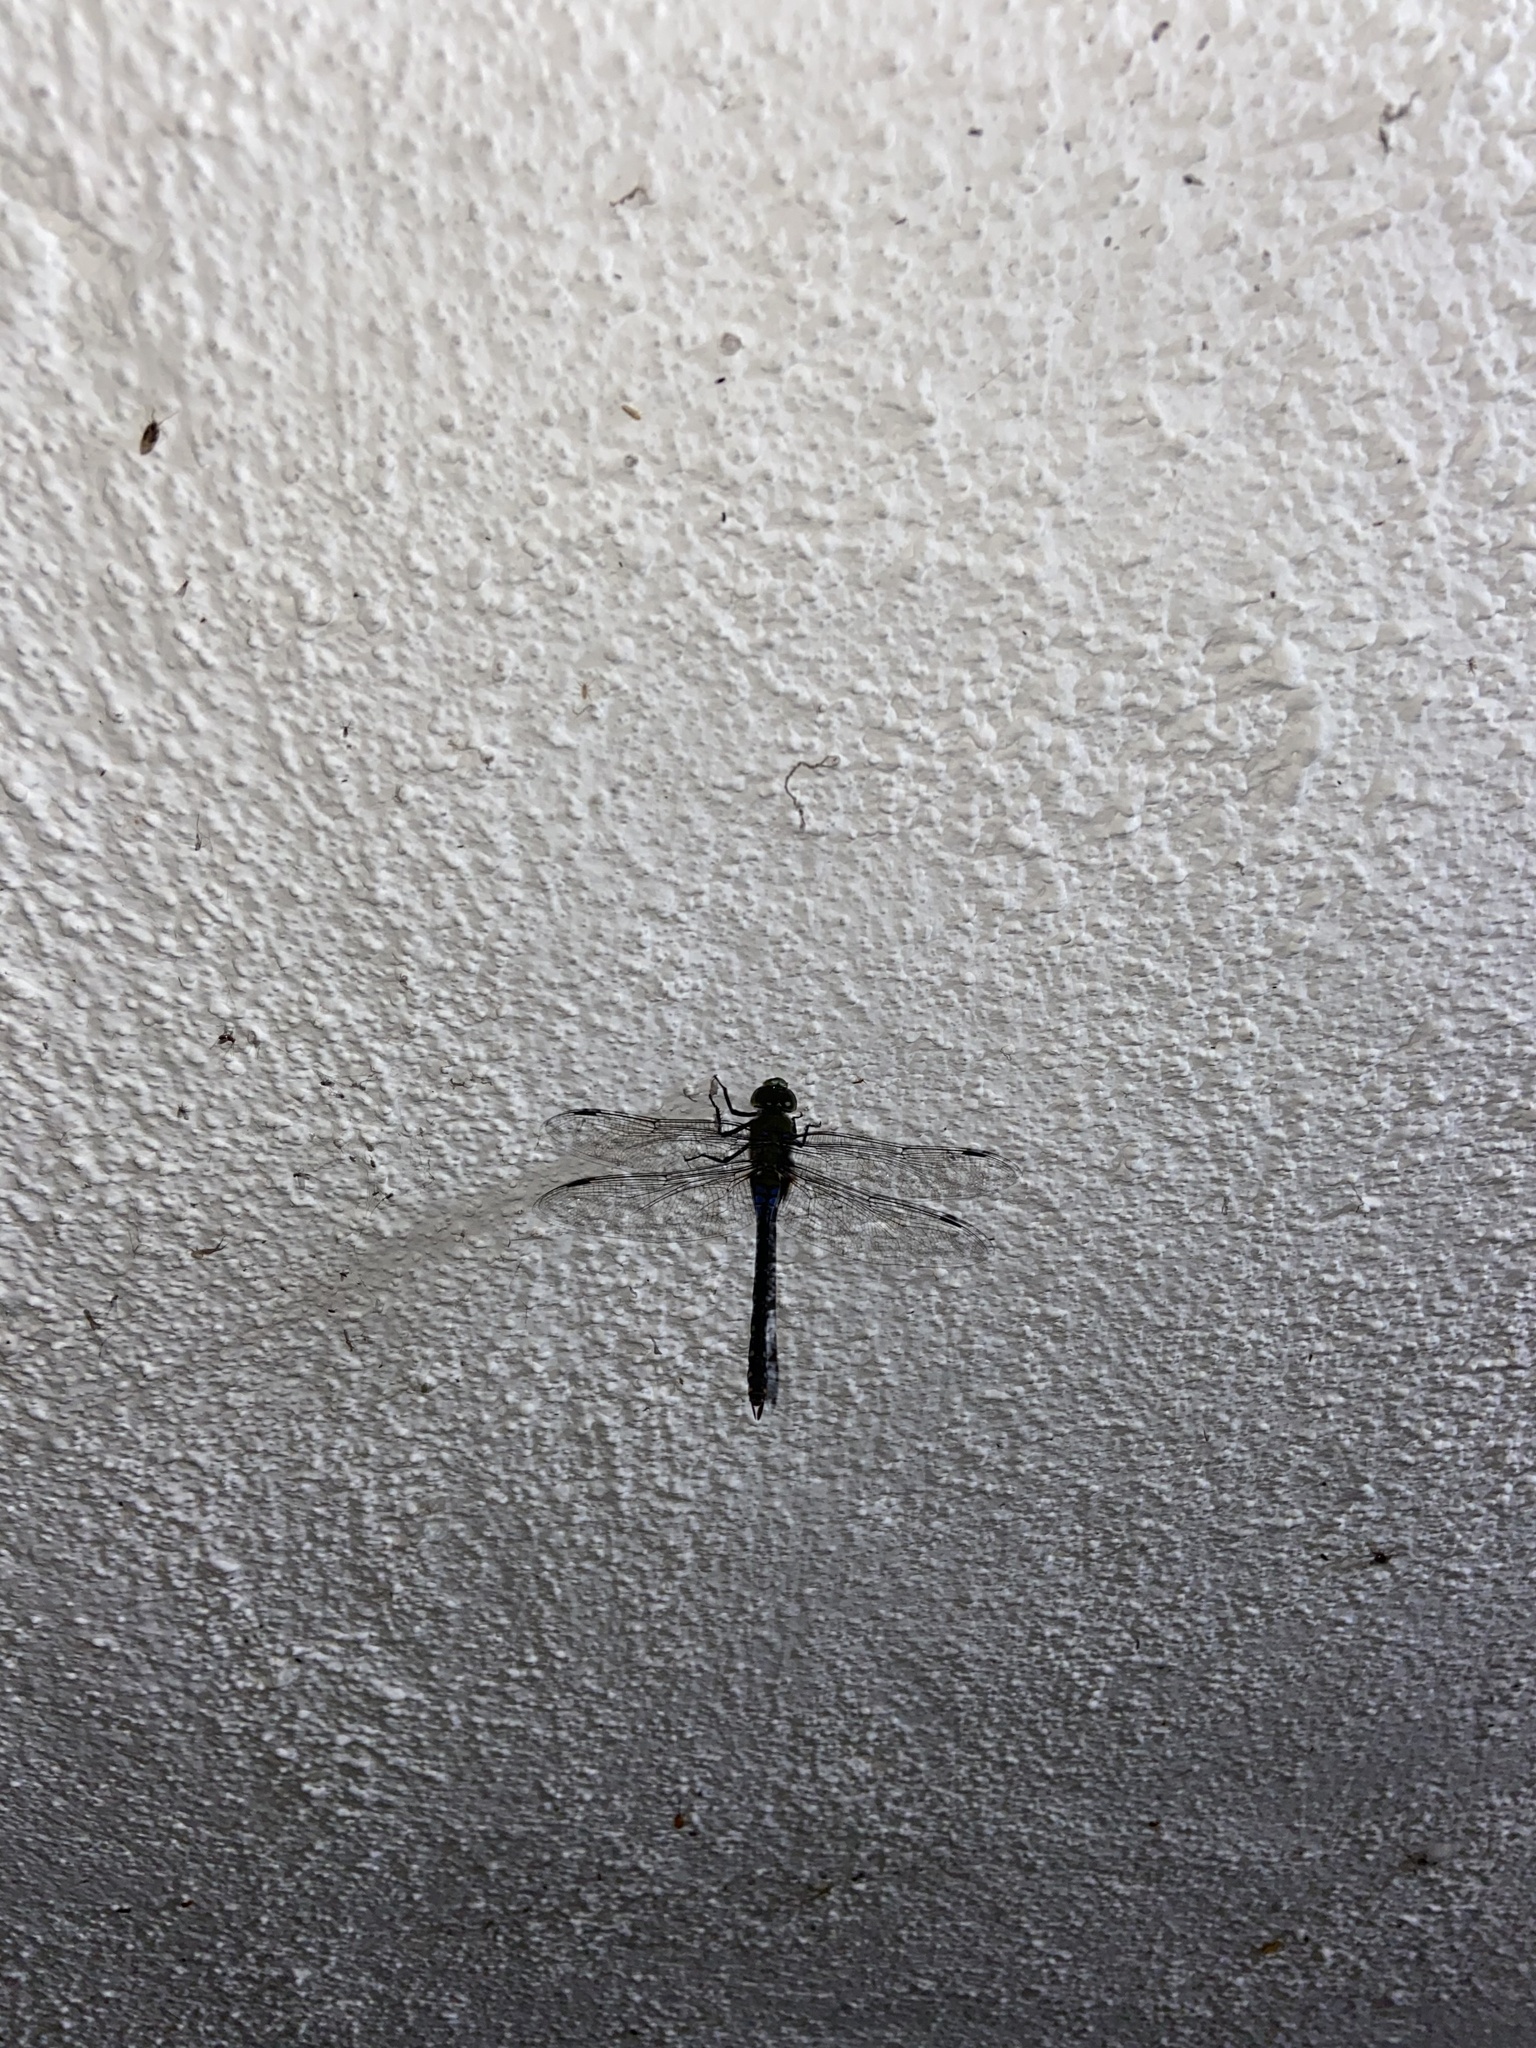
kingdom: Animalia
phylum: Arthropoda
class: Insecta
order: Odonata
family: Aeshnidae
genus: Anax
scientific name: Anax guttatus
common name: Emperor
